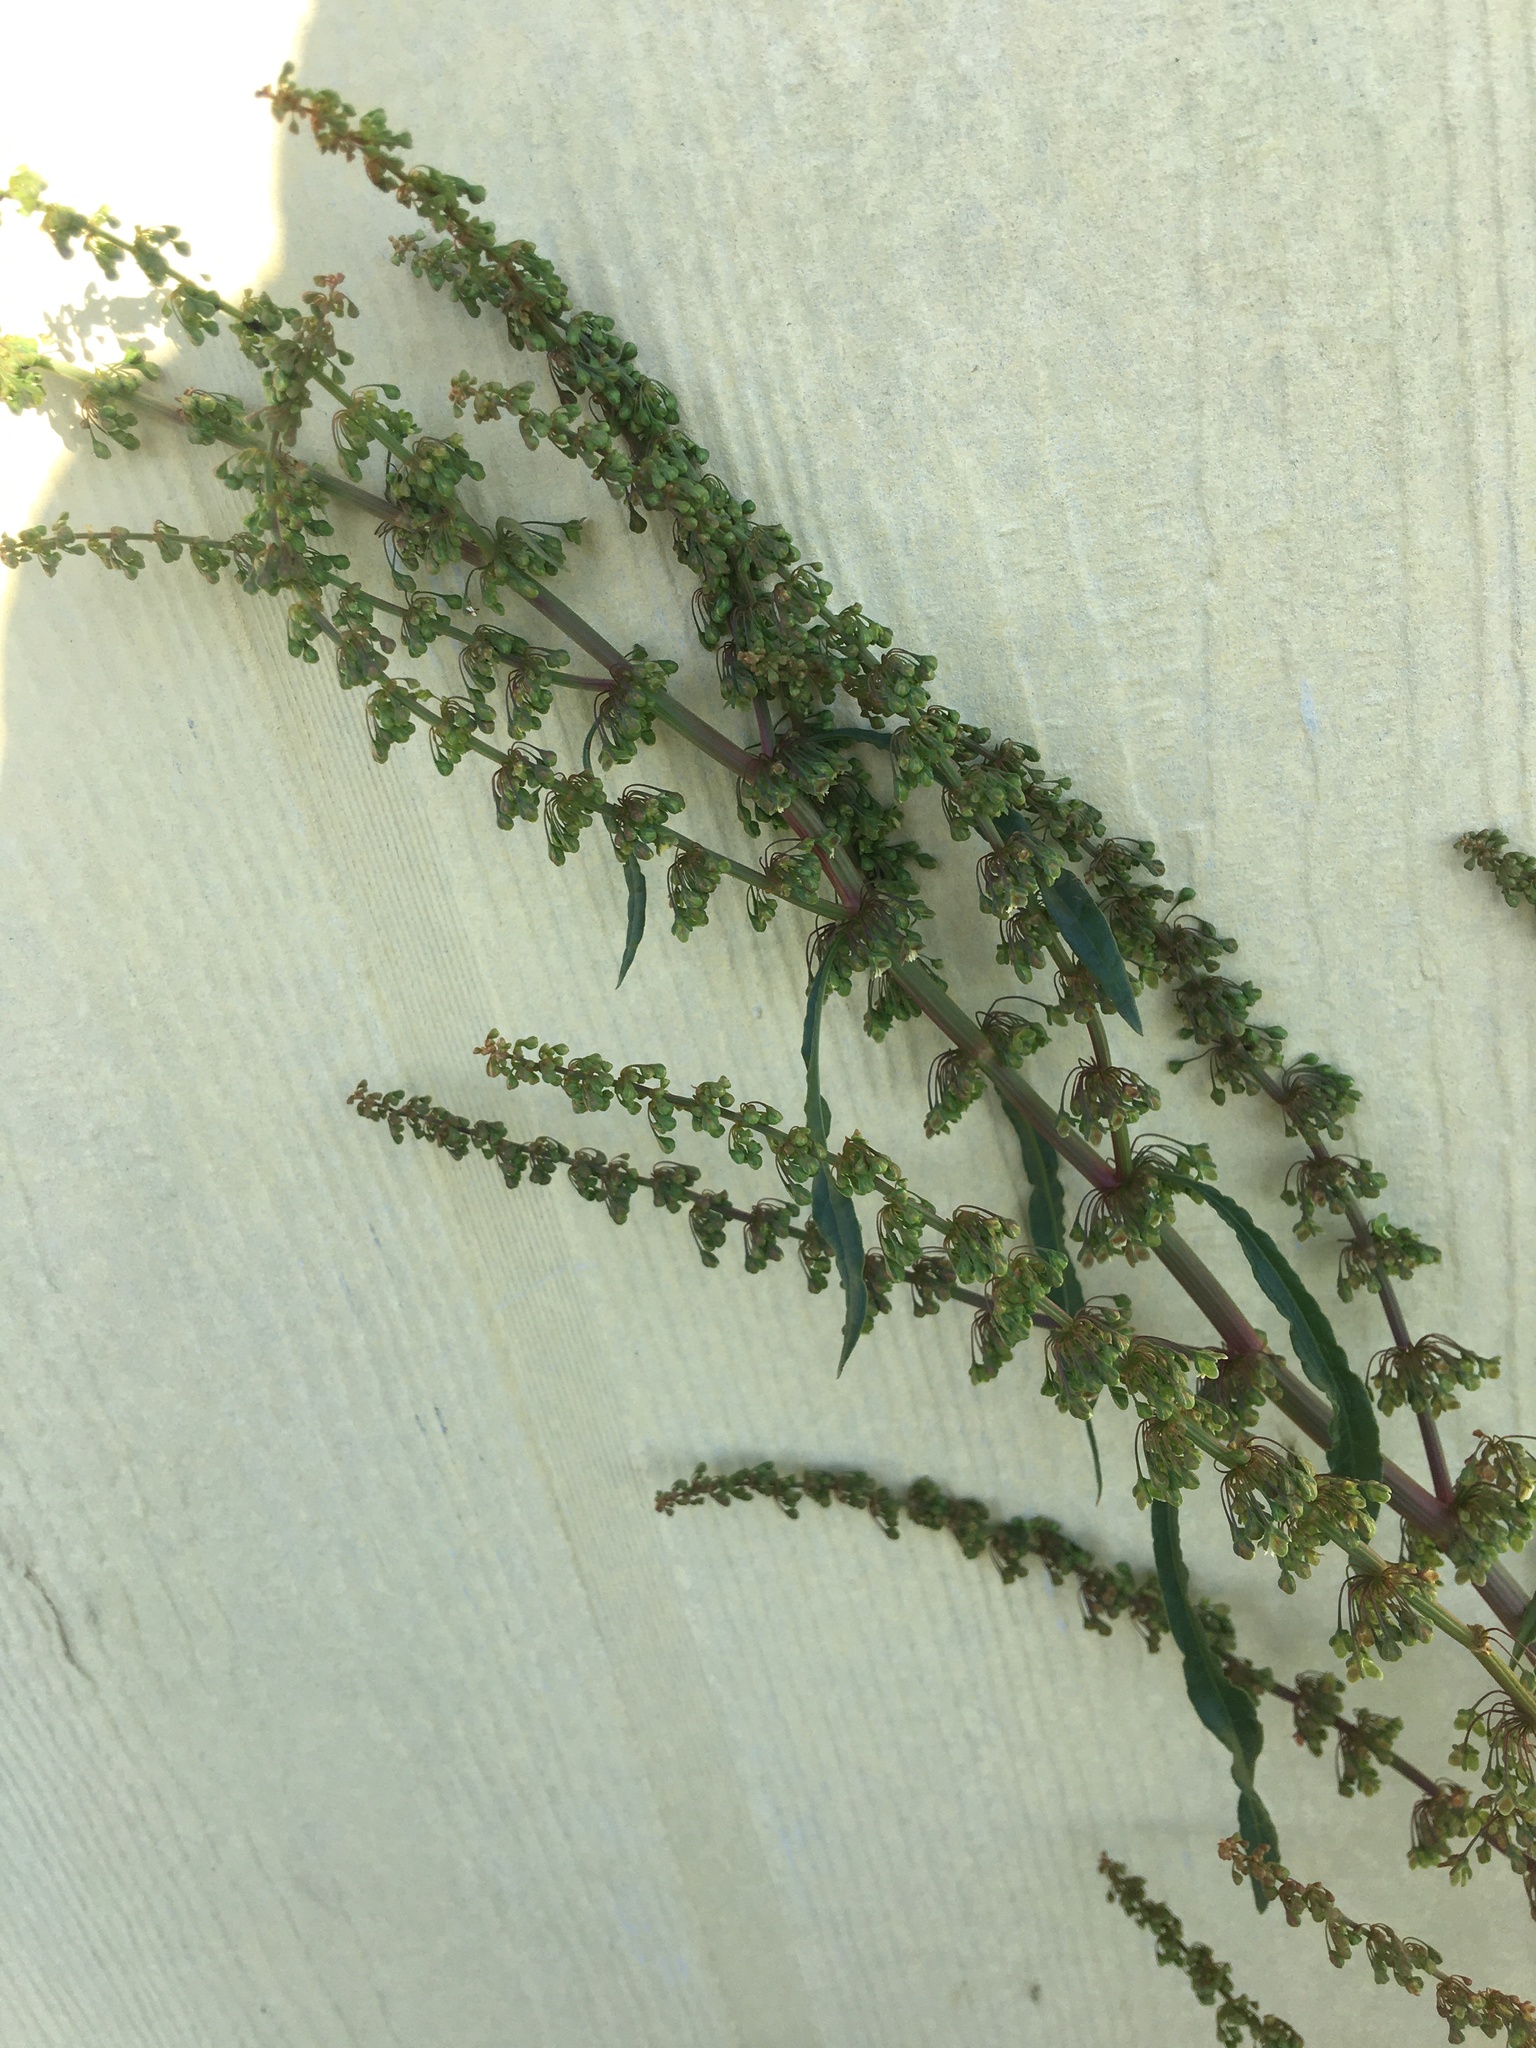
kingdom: Plantae
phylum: Tracheophyta
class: Magnoliopsida
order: Caryophyllales
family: Polygonaceae
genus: Rumex
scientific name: Rumex crispus
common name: Curled dock
